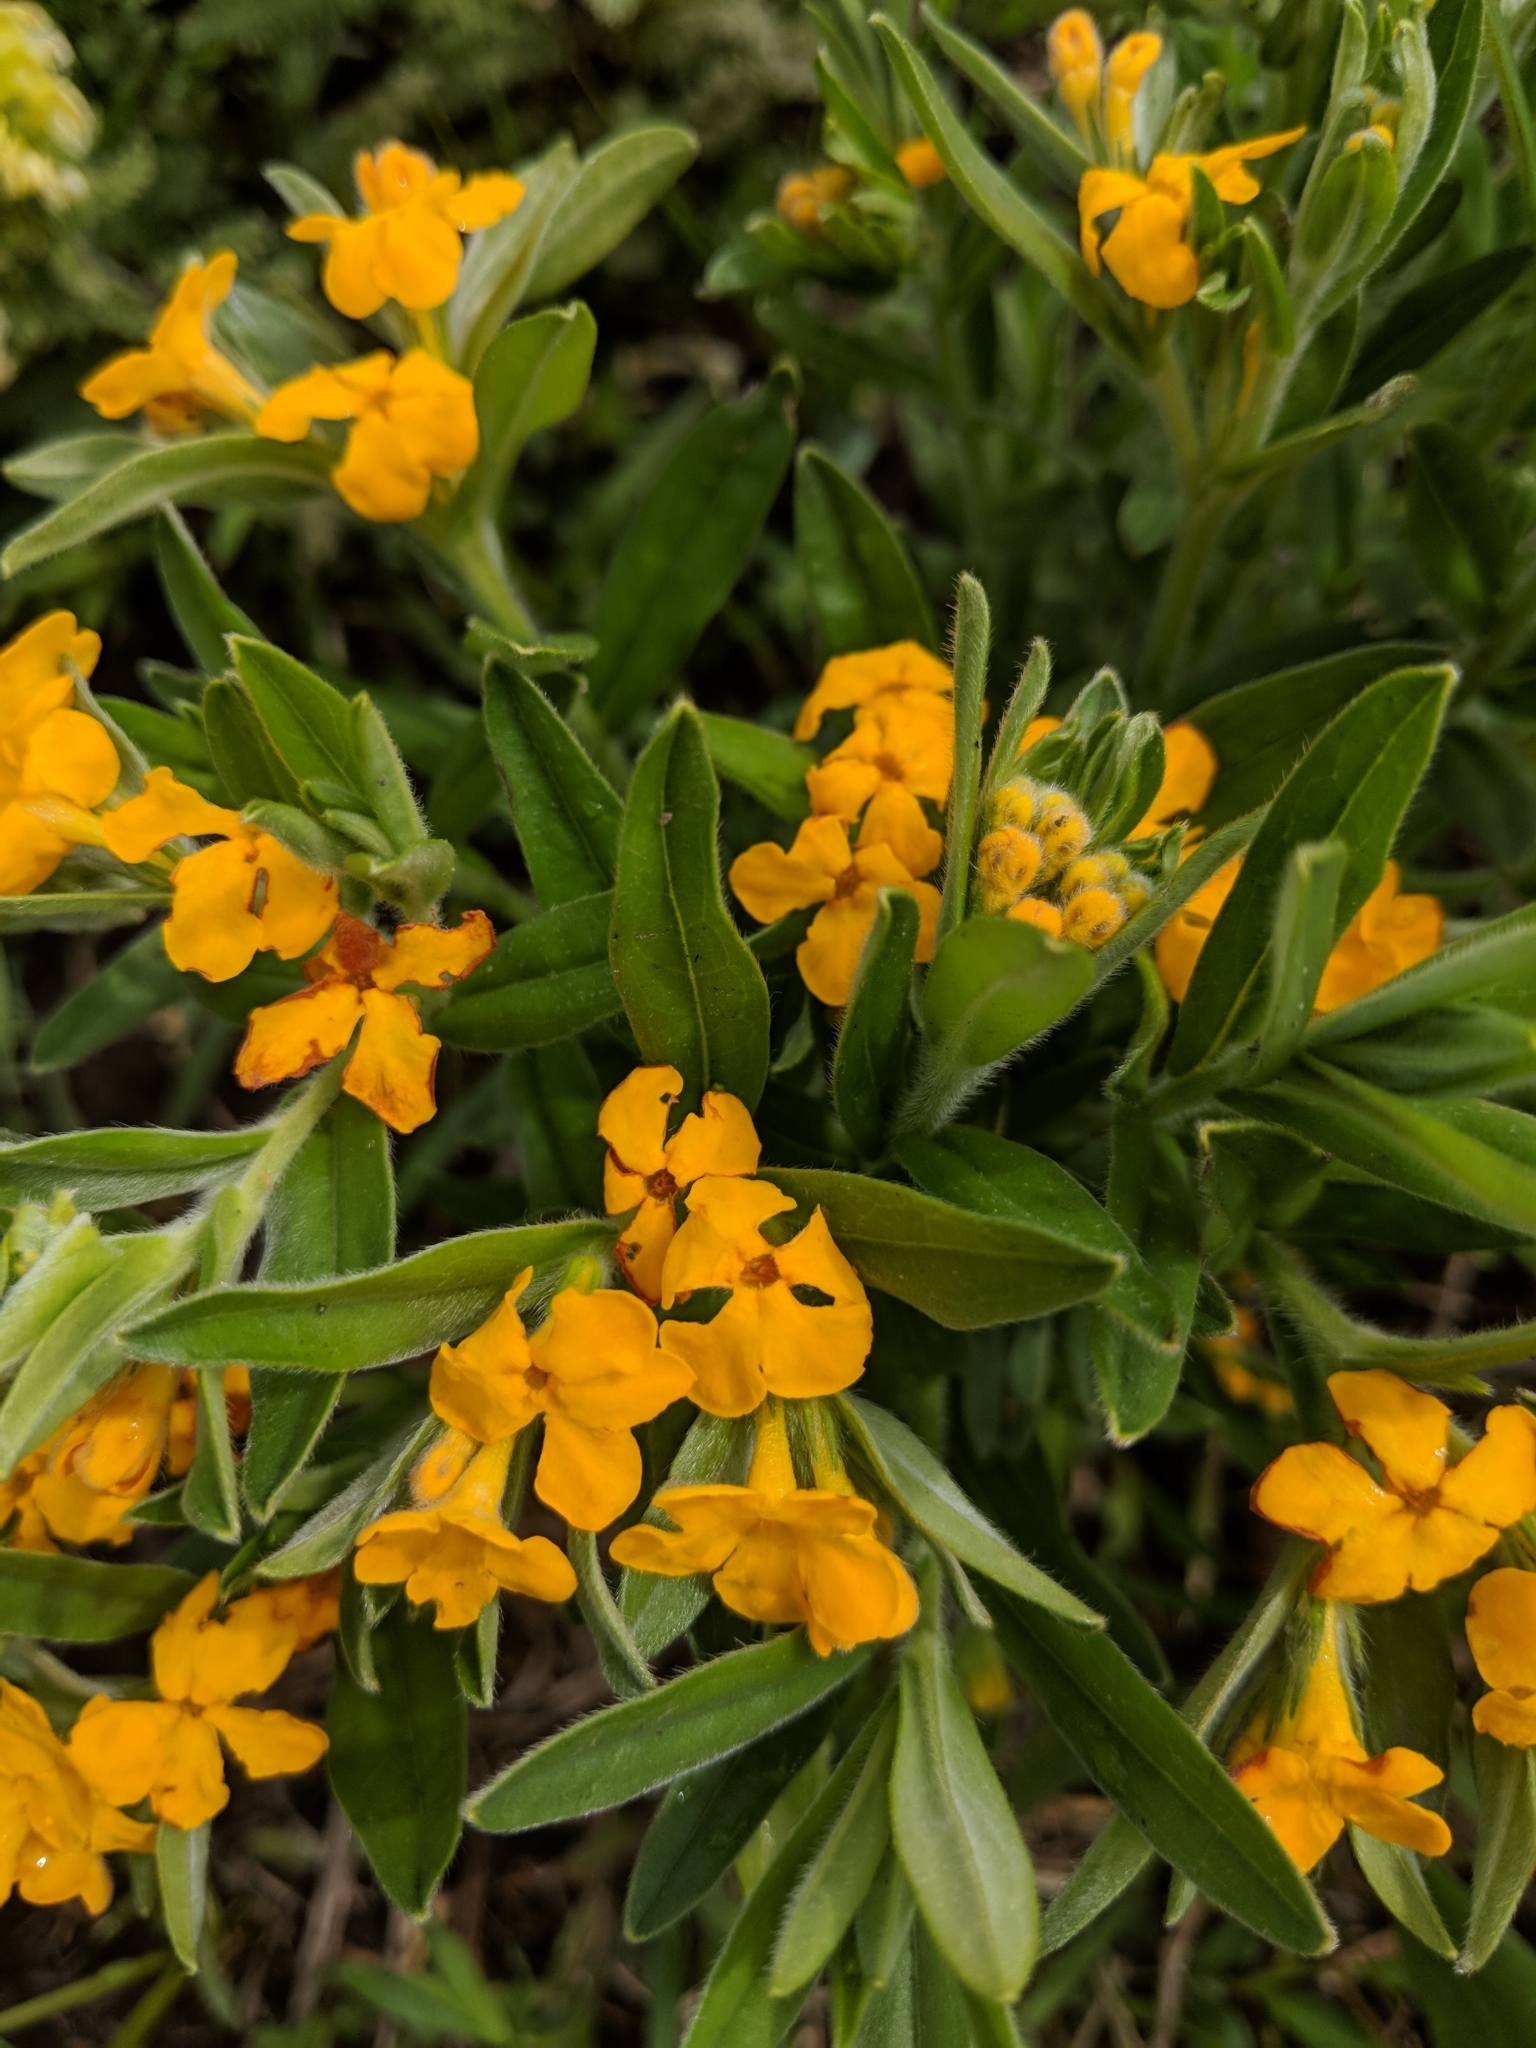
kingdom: Plantae
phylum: Tracheophyta
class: Magnoliopsida
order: Boraginales
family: Boraginaceae
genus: Lithospermum
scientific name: Lithospermum canescens
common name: Hoary puccoon
